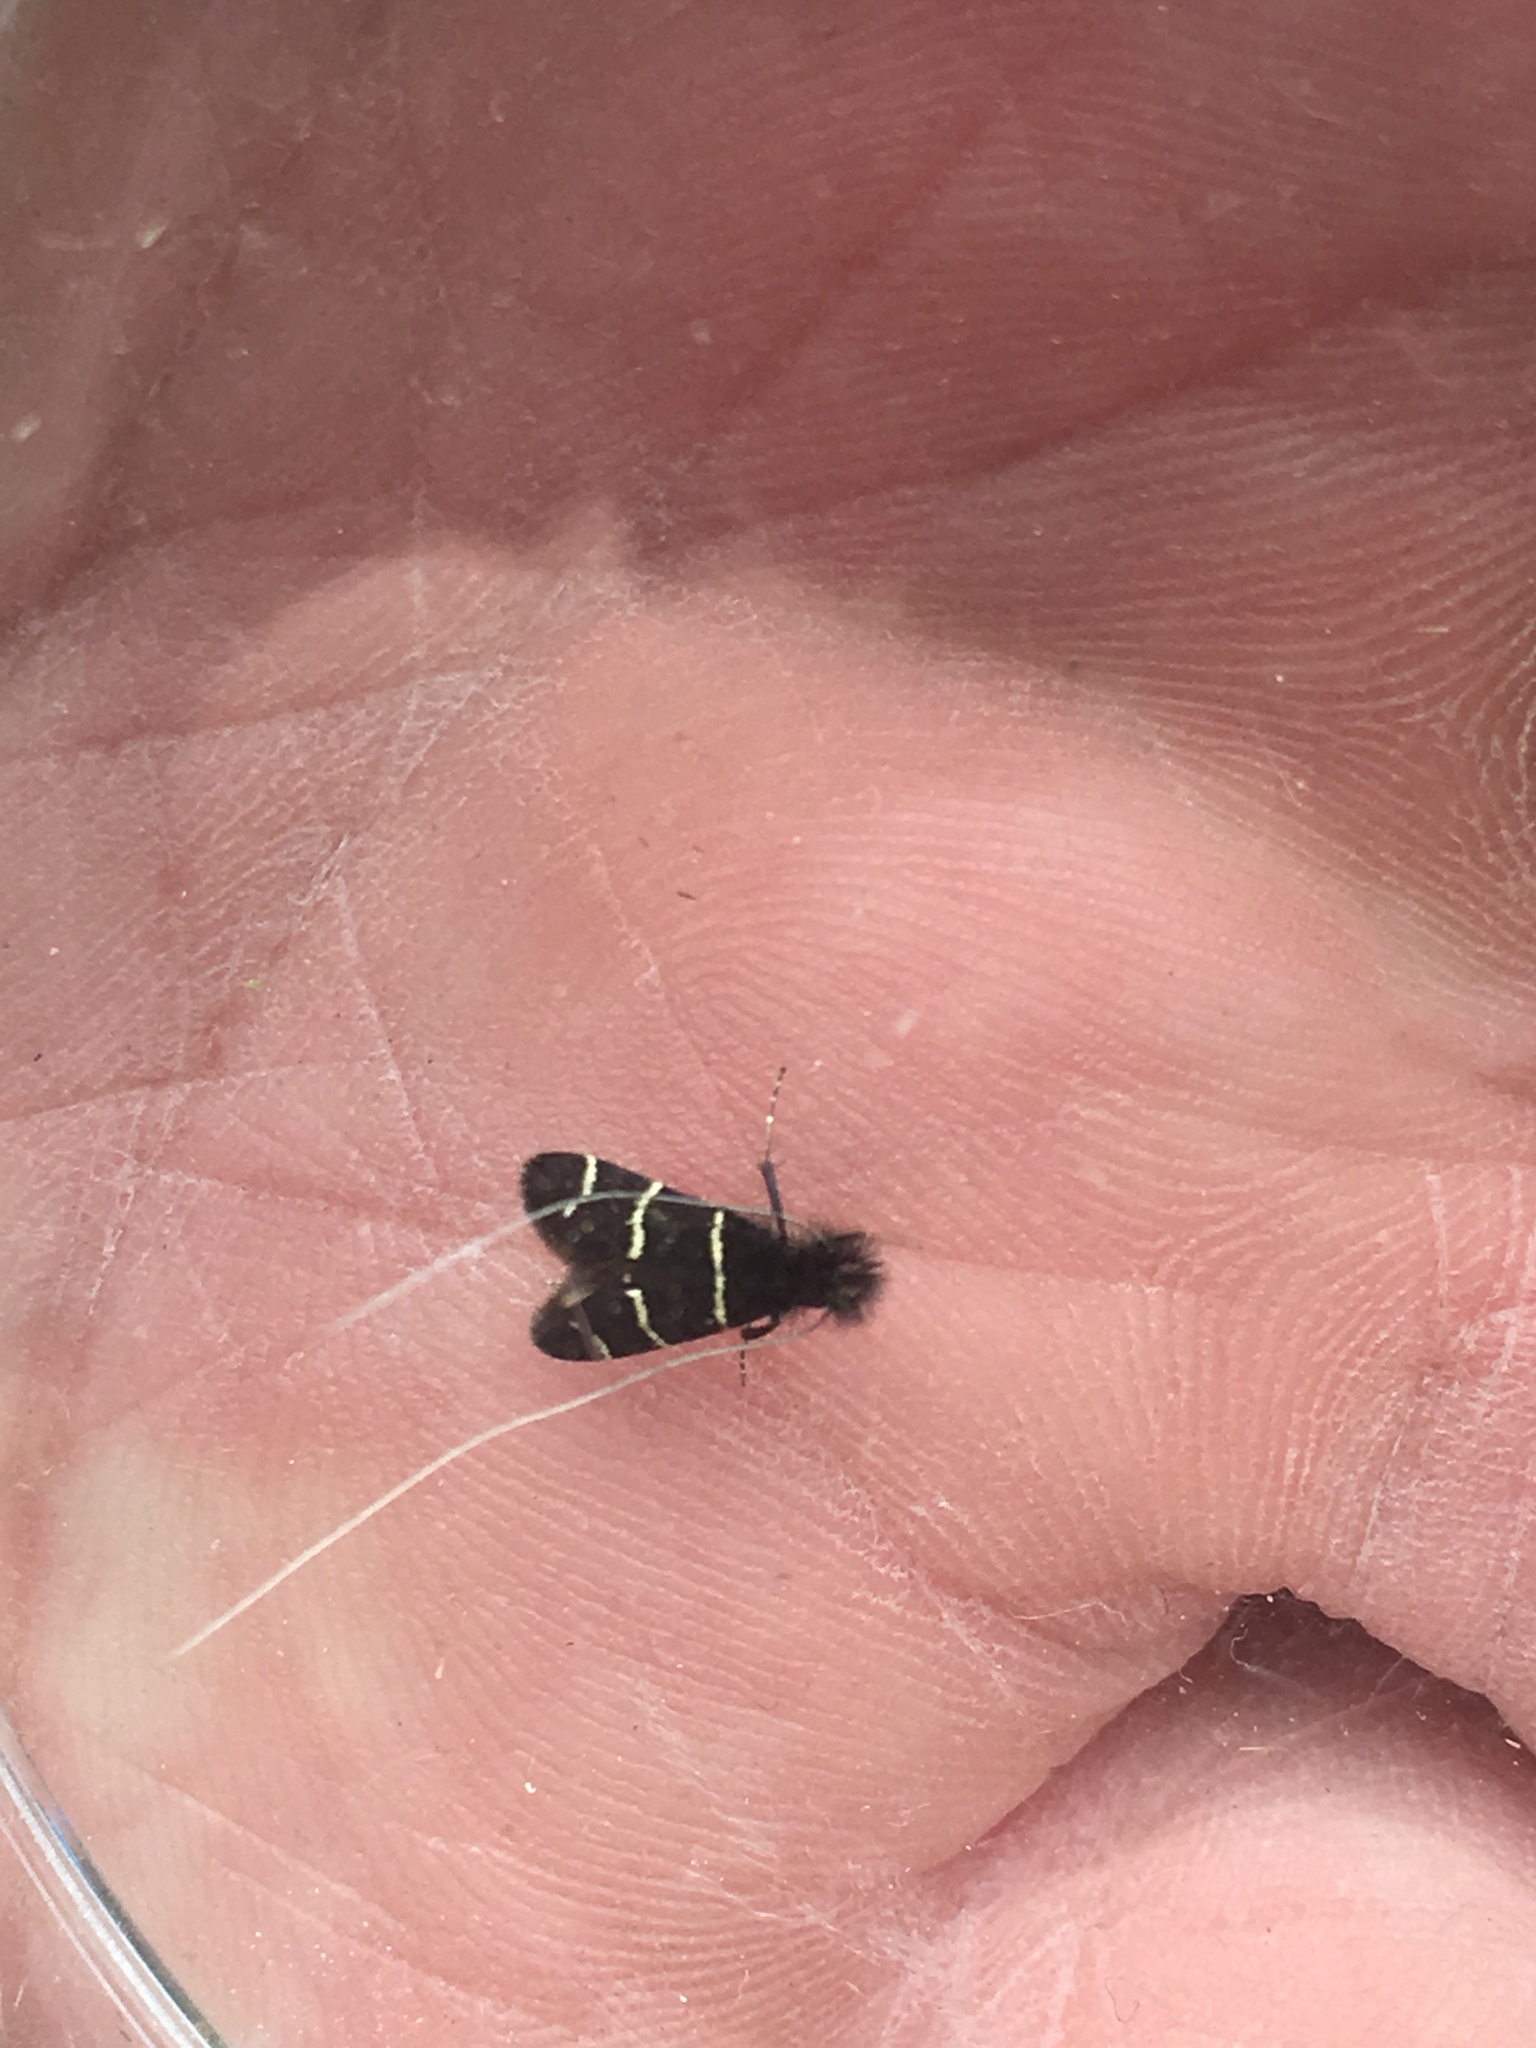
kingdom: Animalia
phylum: Arthropoda
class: Insecta
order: Lepidoptera
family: Adelidae
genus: Adela
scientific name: Adela trigrapha
